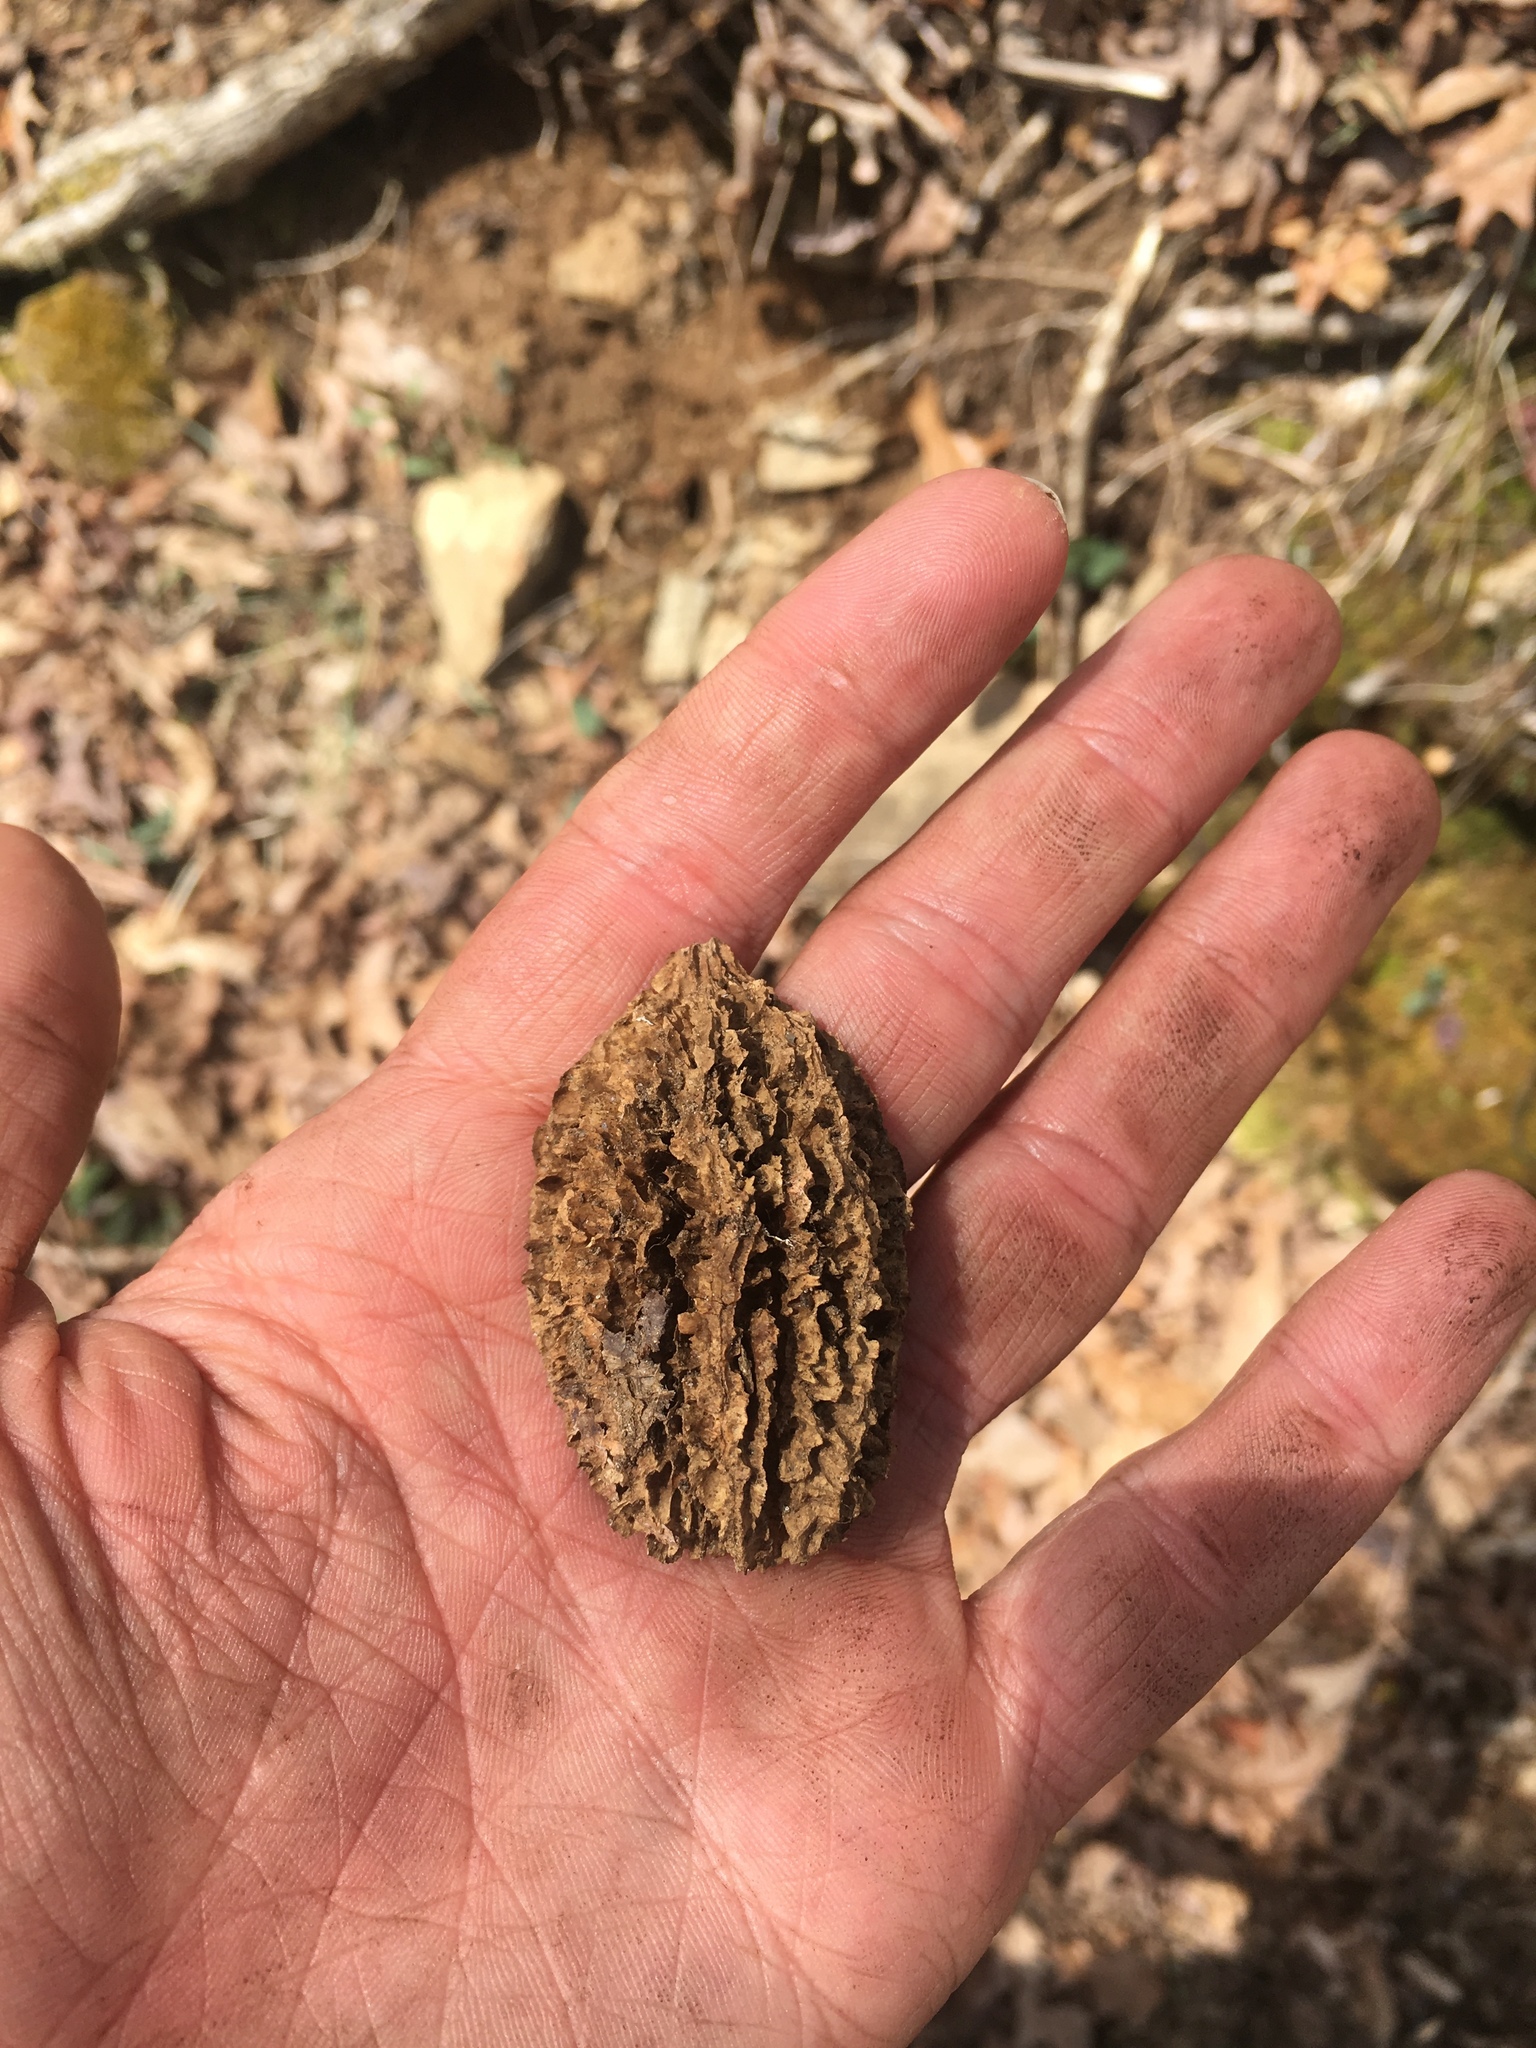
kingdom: Plantae
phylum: Tracheophyta
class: Magnoliopsida
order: Fagales
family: Juglandaceae
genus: Juglans
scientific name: Juglans cinerea
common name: Butternut
